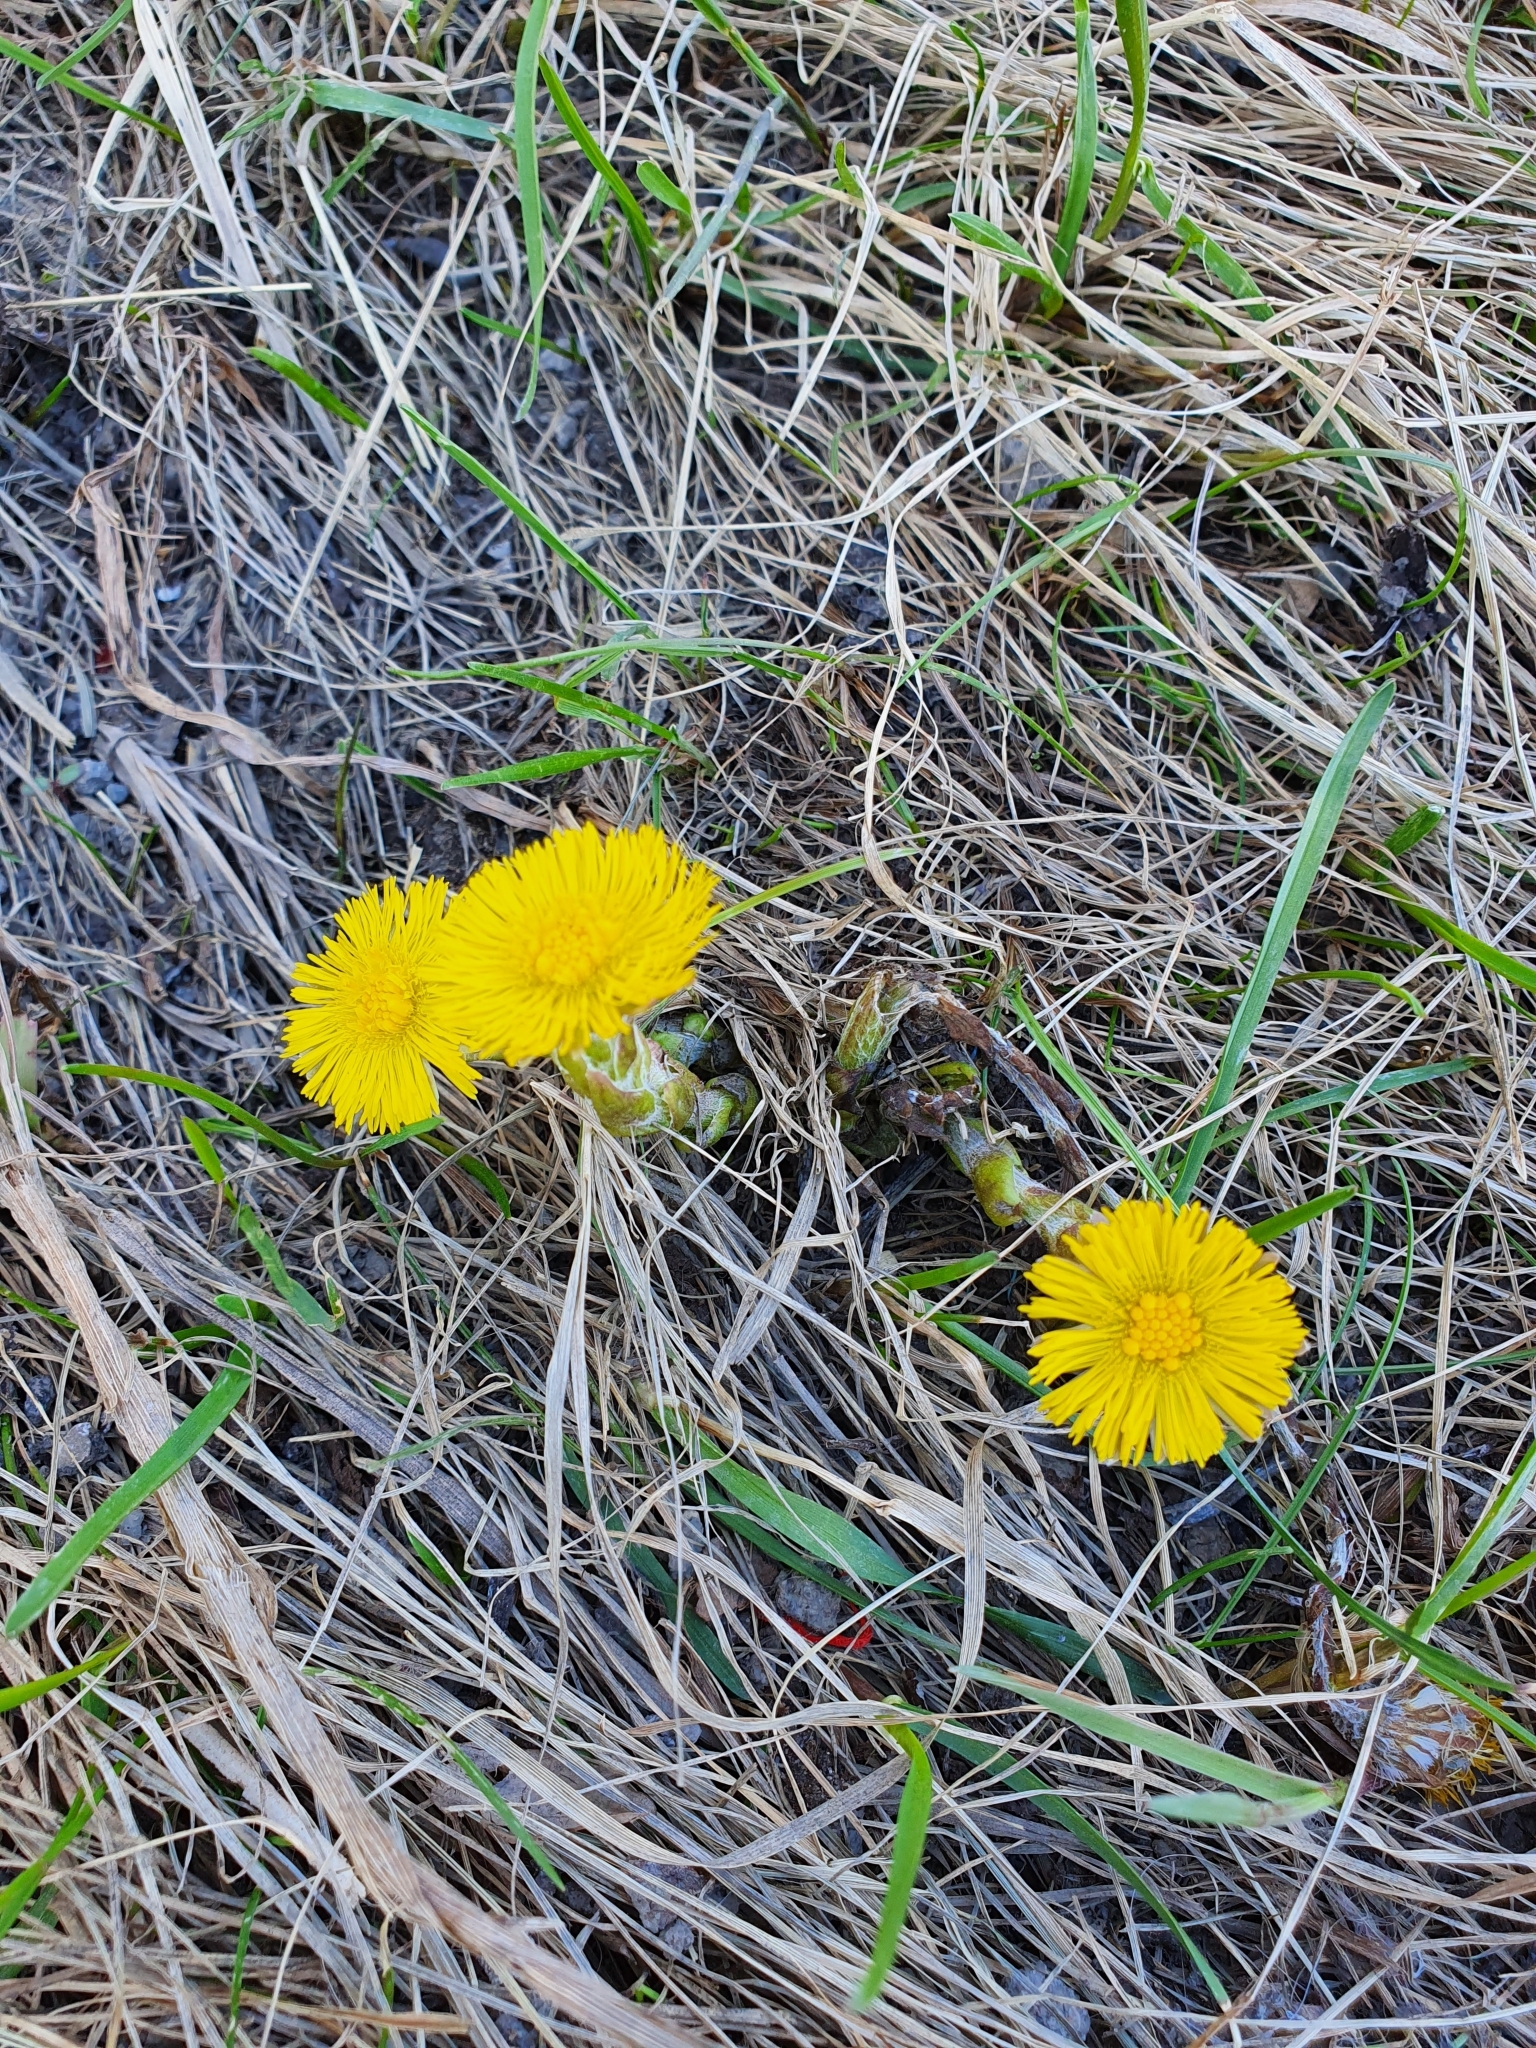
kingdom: Plantae
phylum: Tracheophyta
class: Magnoliopsida
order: Asterales
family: Asteraceae
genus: Tussilago
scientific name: Tussilago farfara
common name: Coltsfoot
